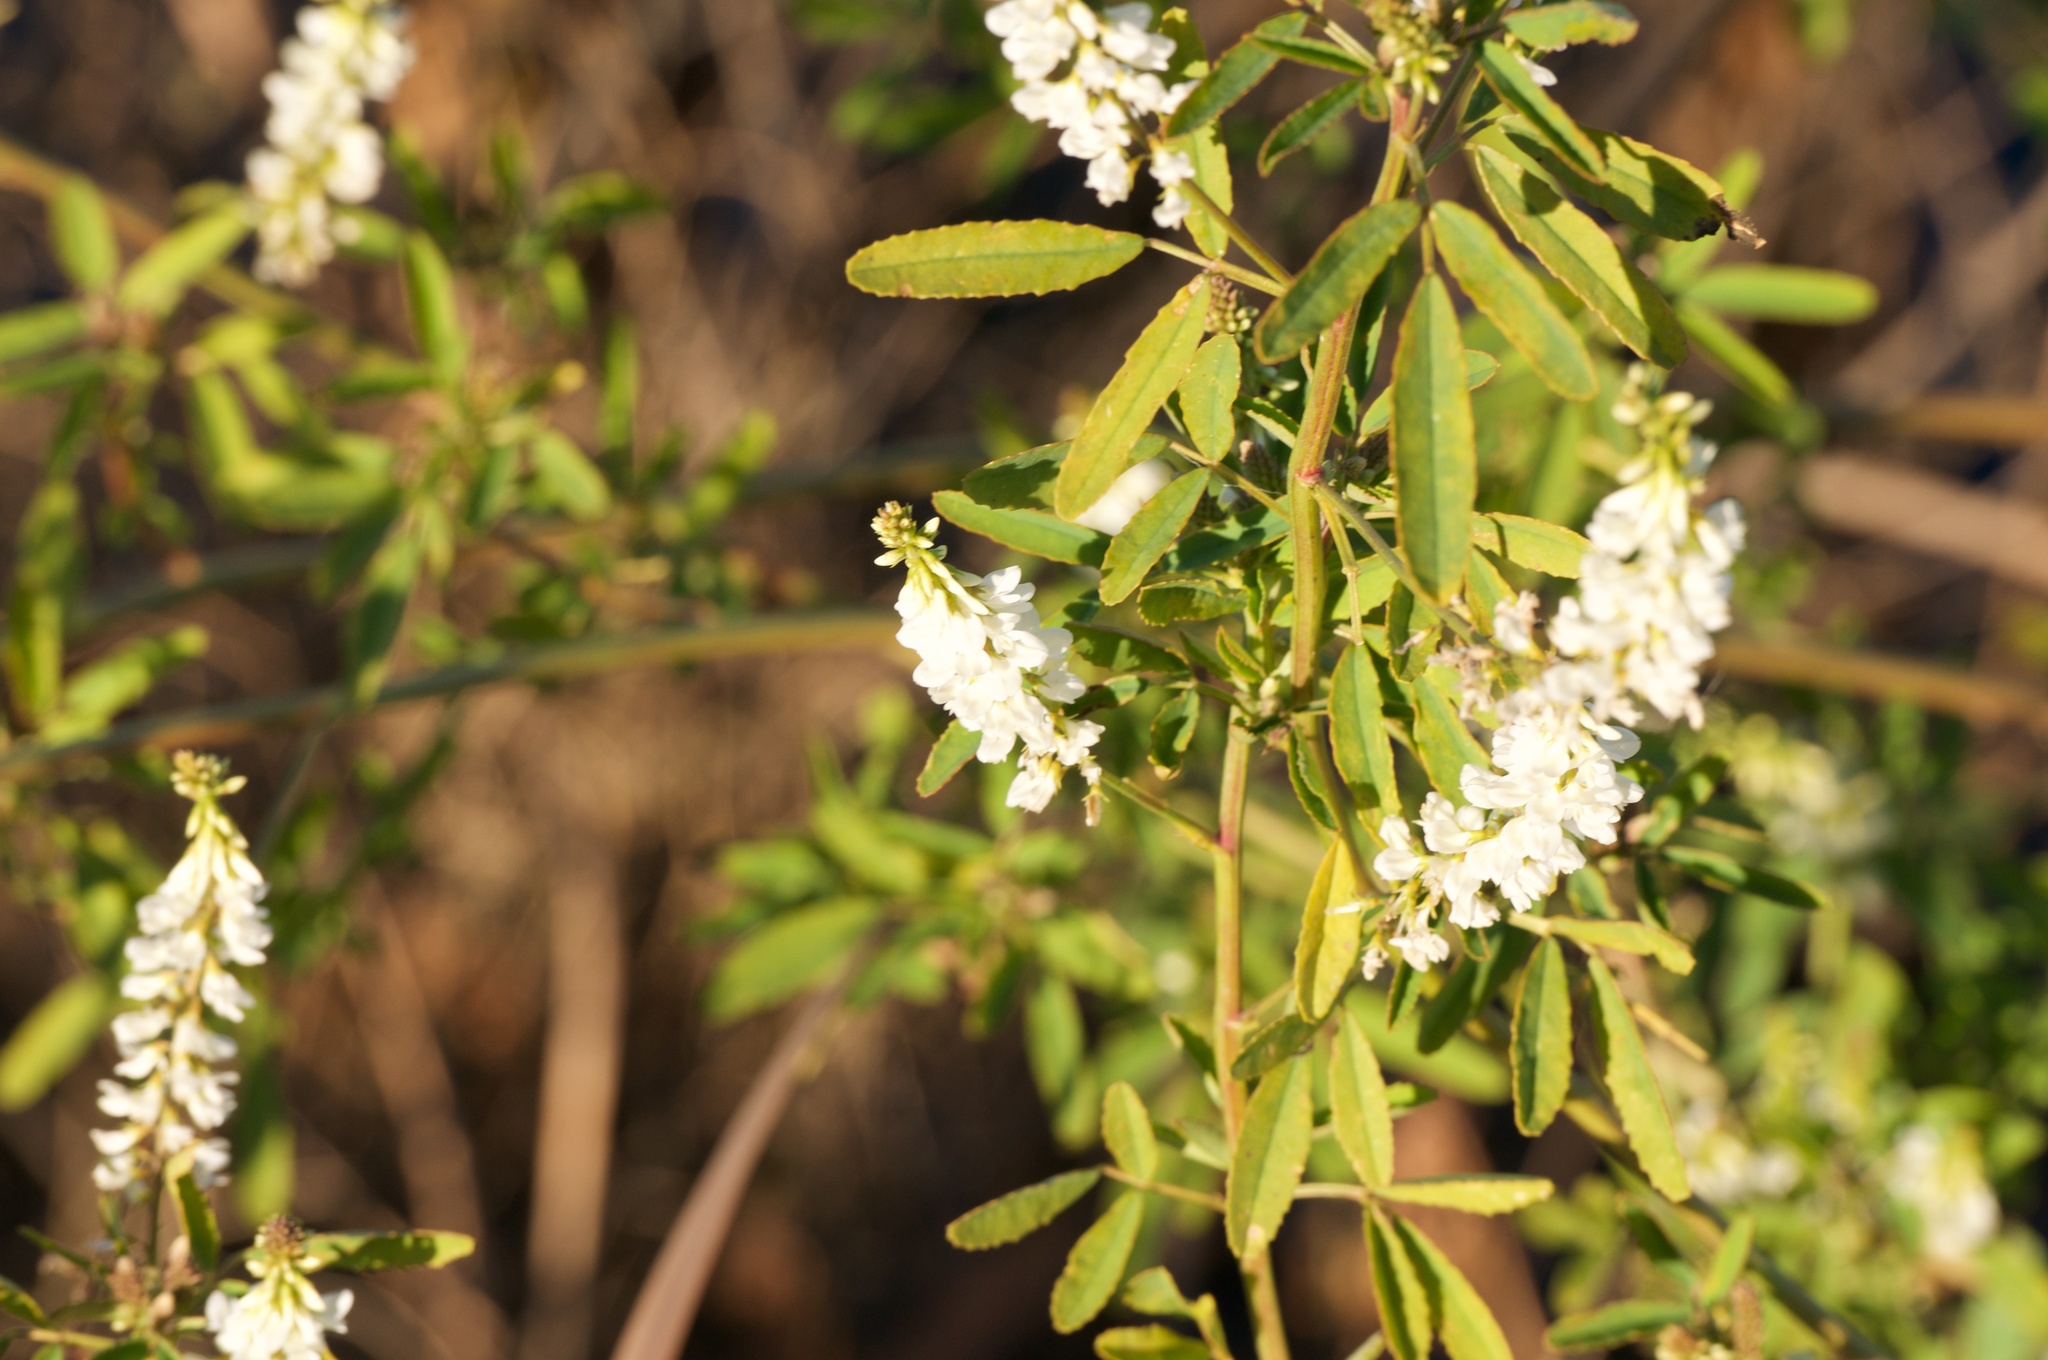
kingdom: Plantae
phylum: Tracheophyta
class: Magnoliopsida
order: Fabales
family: Fabaceae
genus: Melilotus
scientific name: Melilotus albus
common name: White melilot
